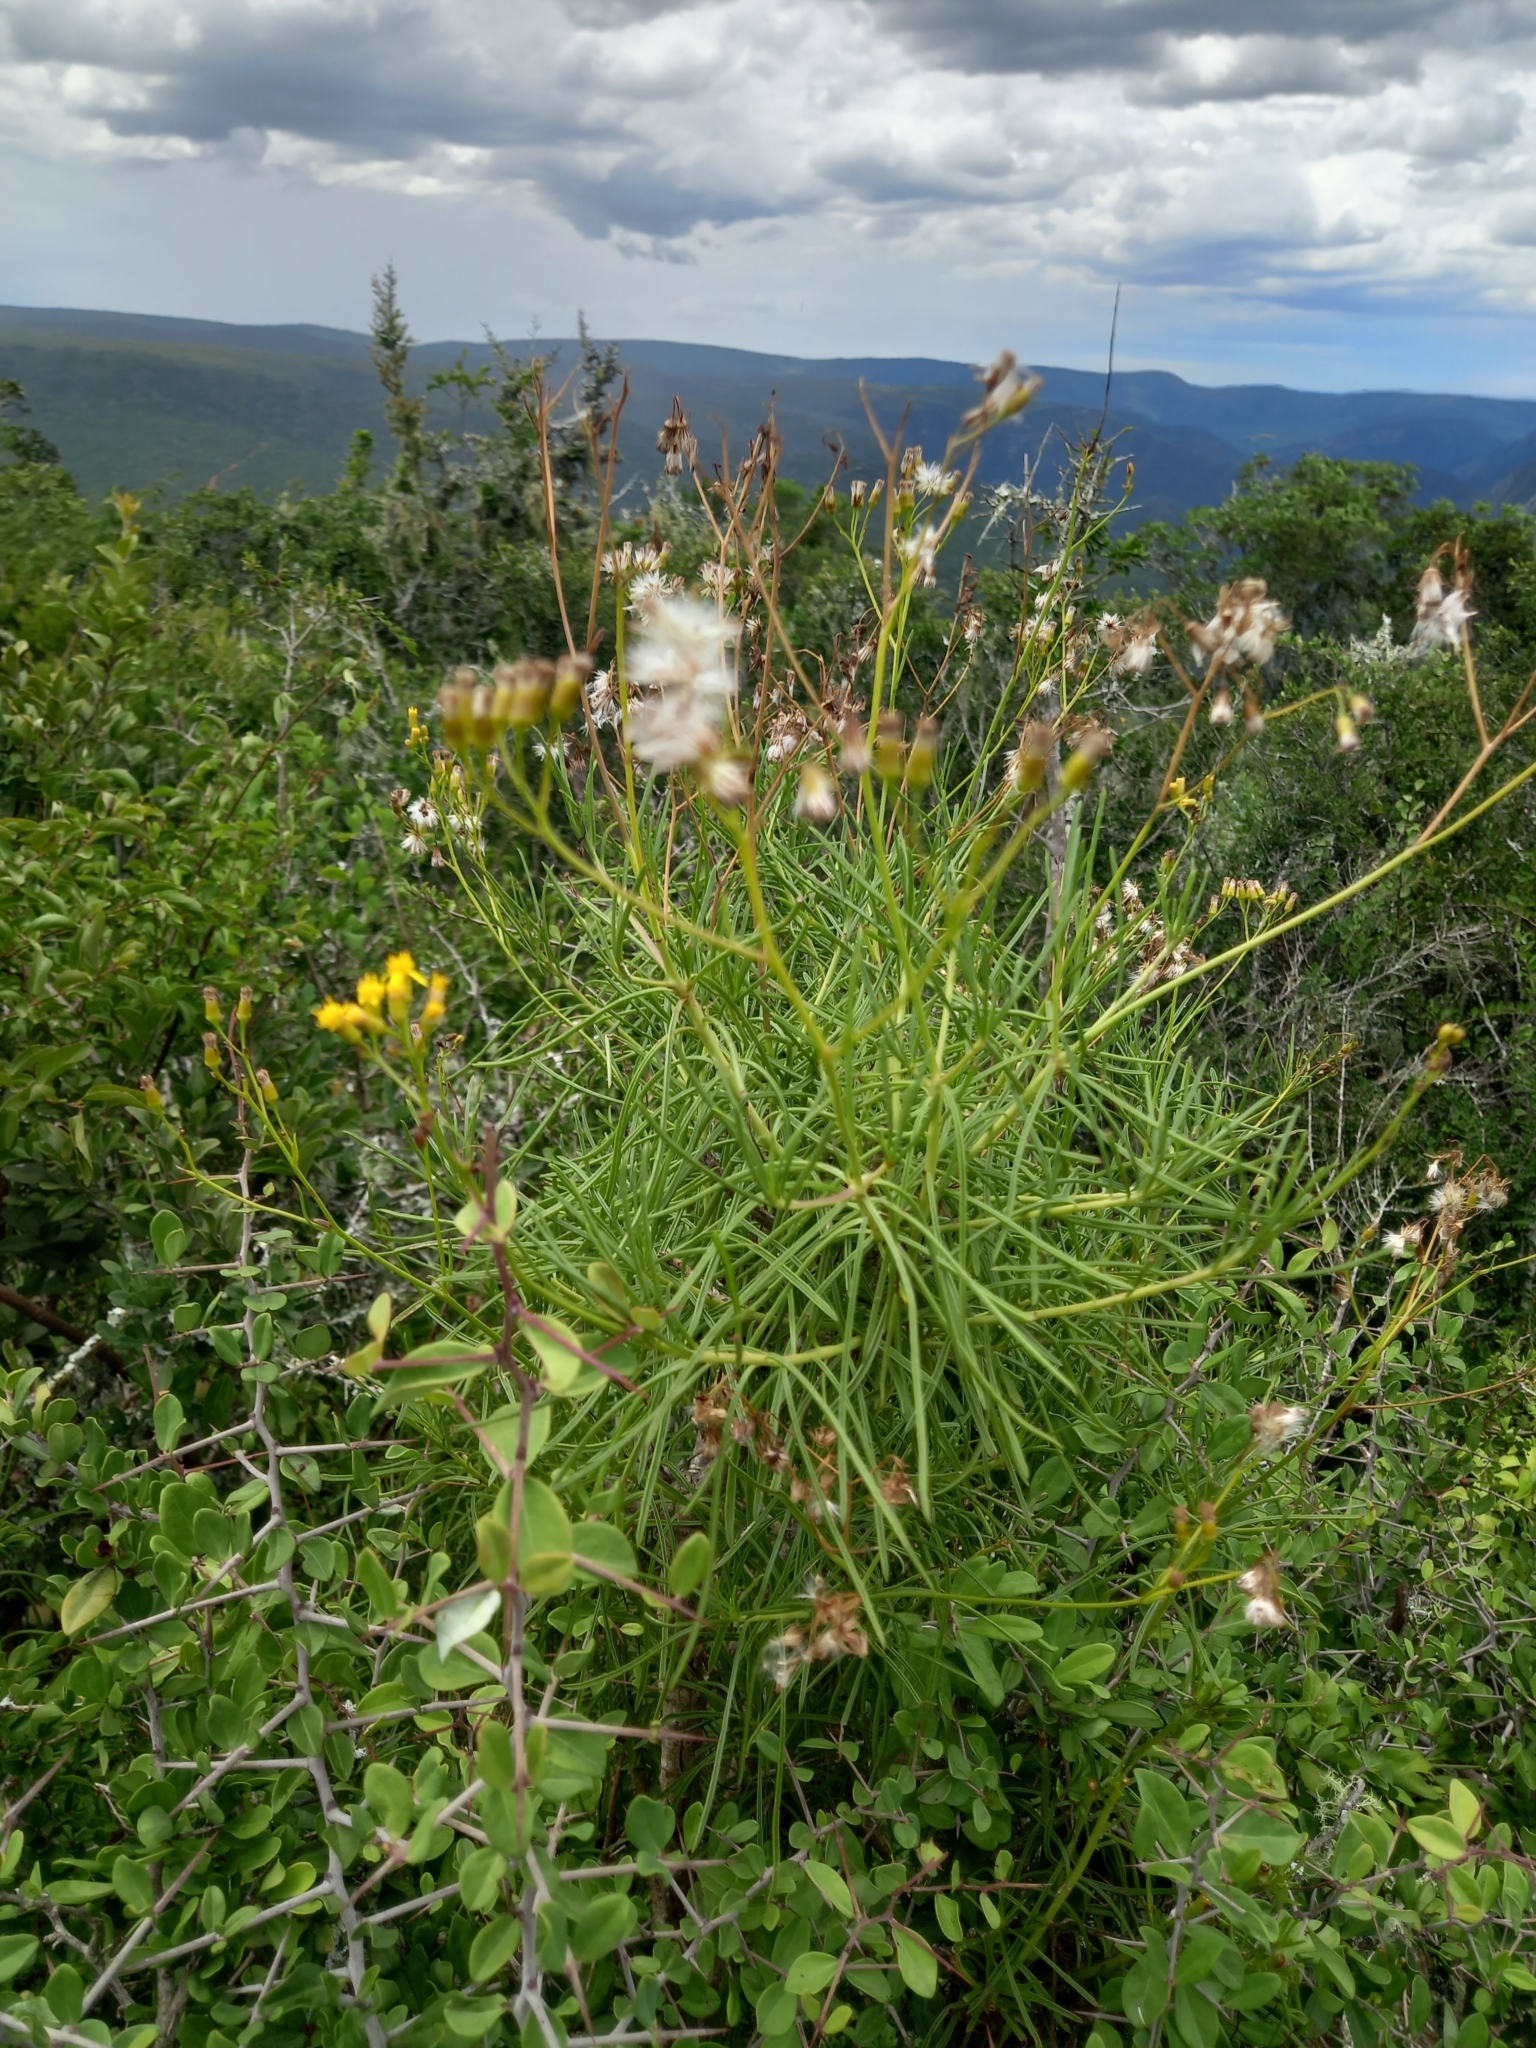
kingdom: Plantae
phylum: Tracheophyta
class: Magnoliopsida
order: Asterales
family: Asteraceae
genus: Senecio
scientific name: Senecio linifolius
